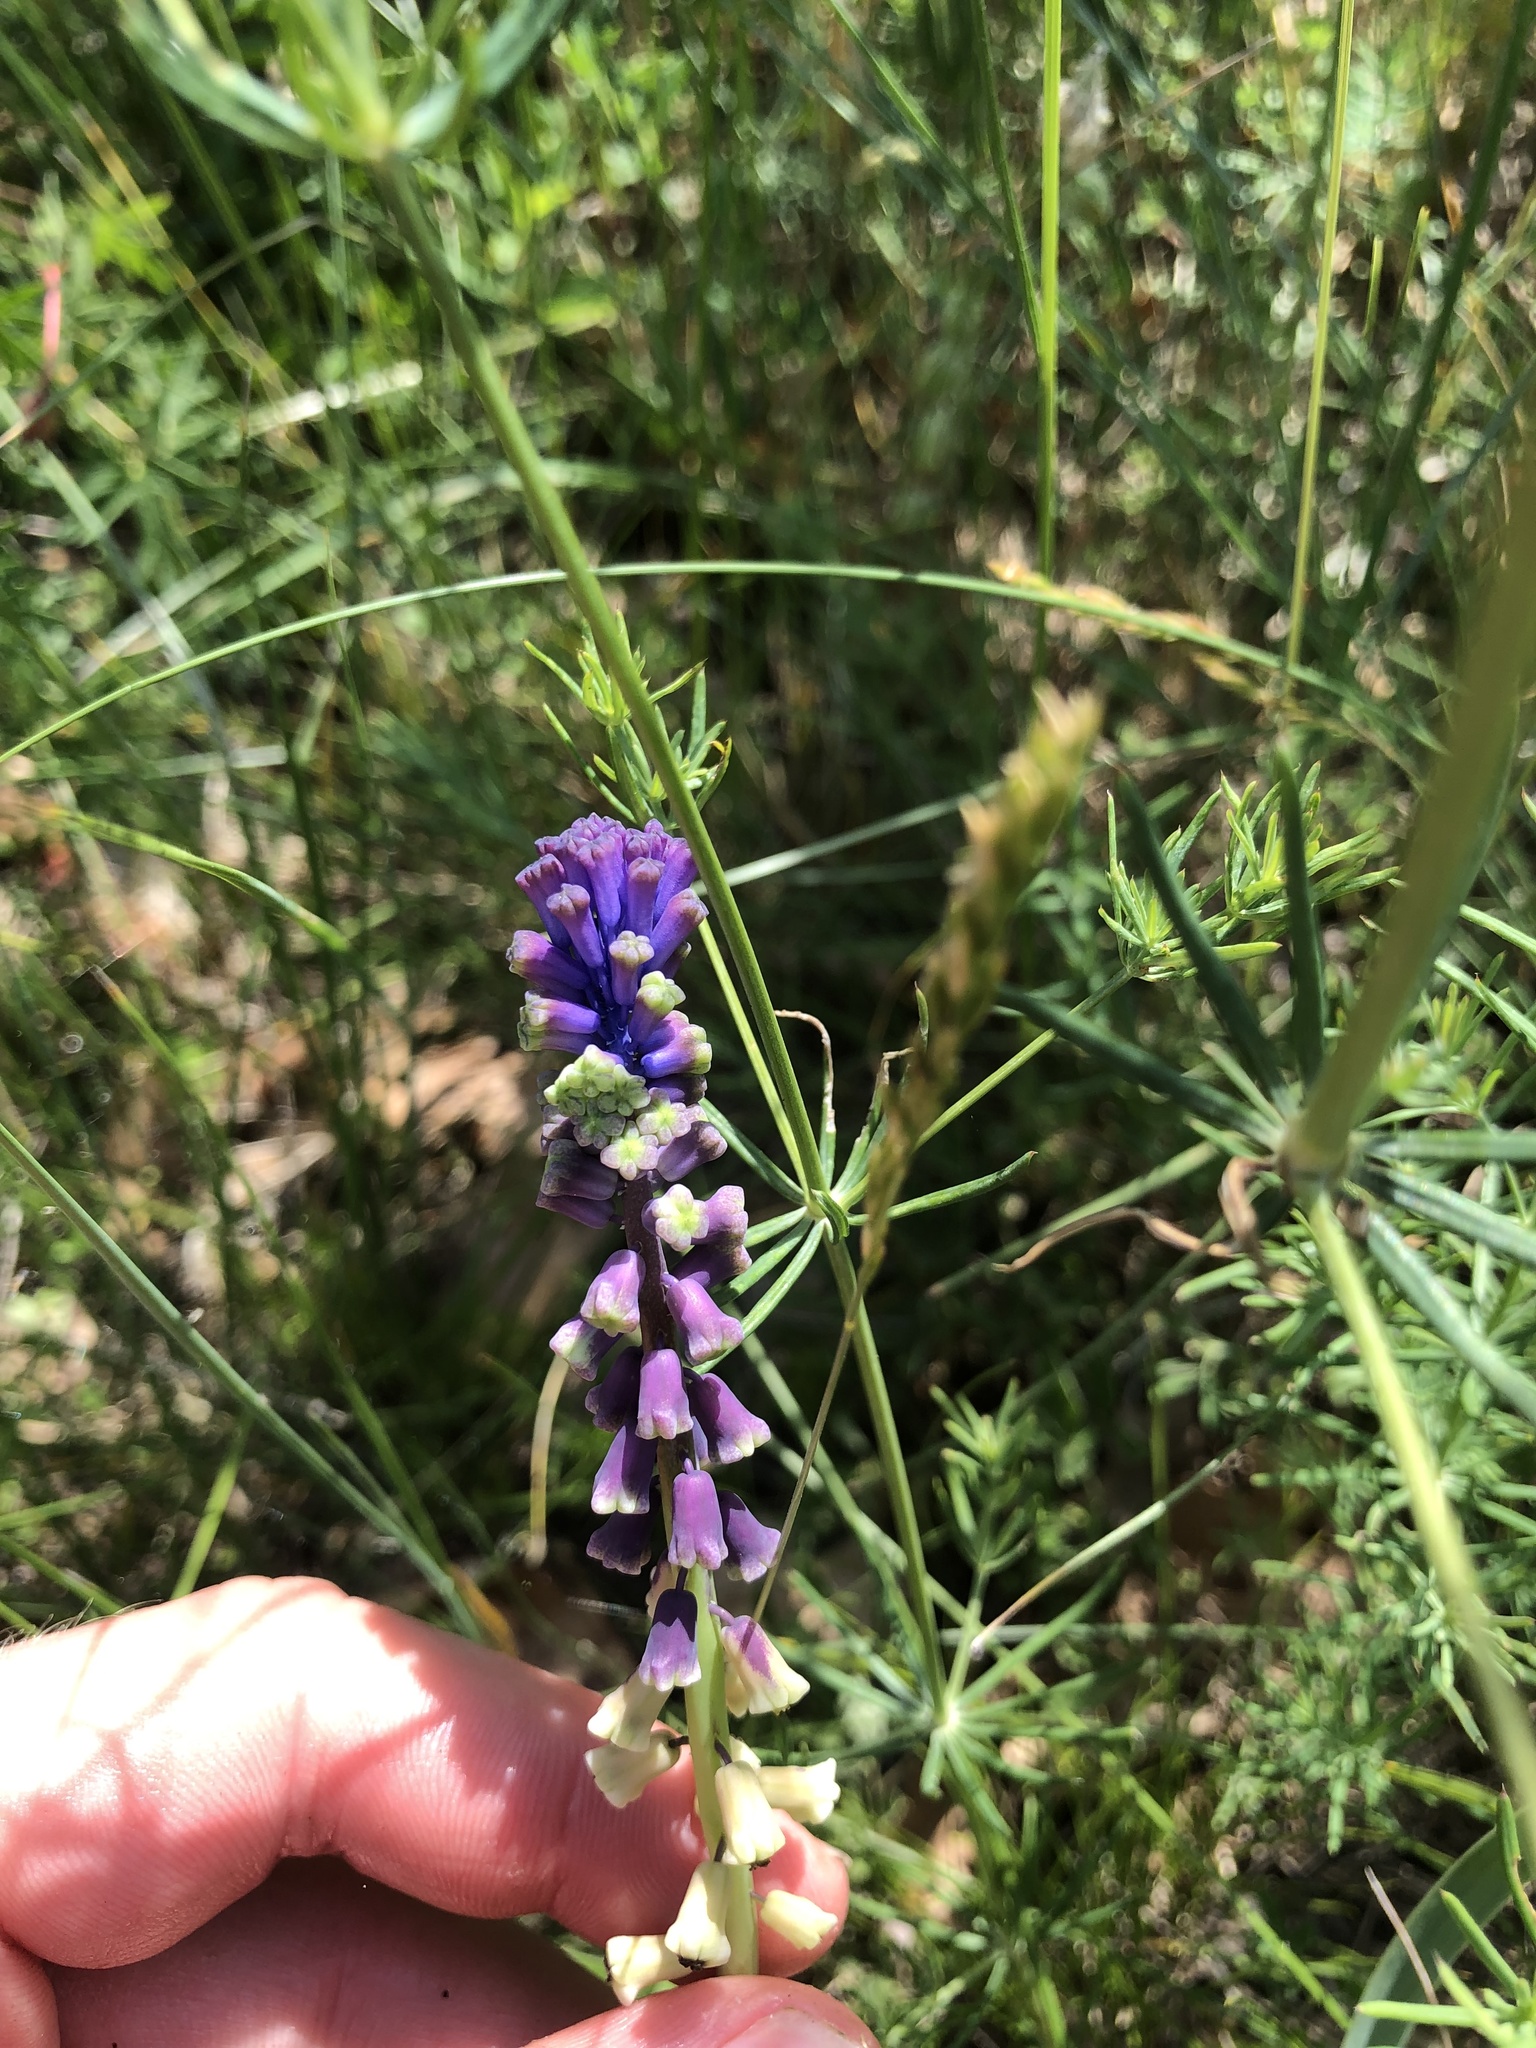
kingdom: Plantae
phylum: Tracheophyta
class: Liliopsida
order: Asparagales
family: Asparagaceae
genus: Muscari
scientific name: Muscari tenuiflorum
